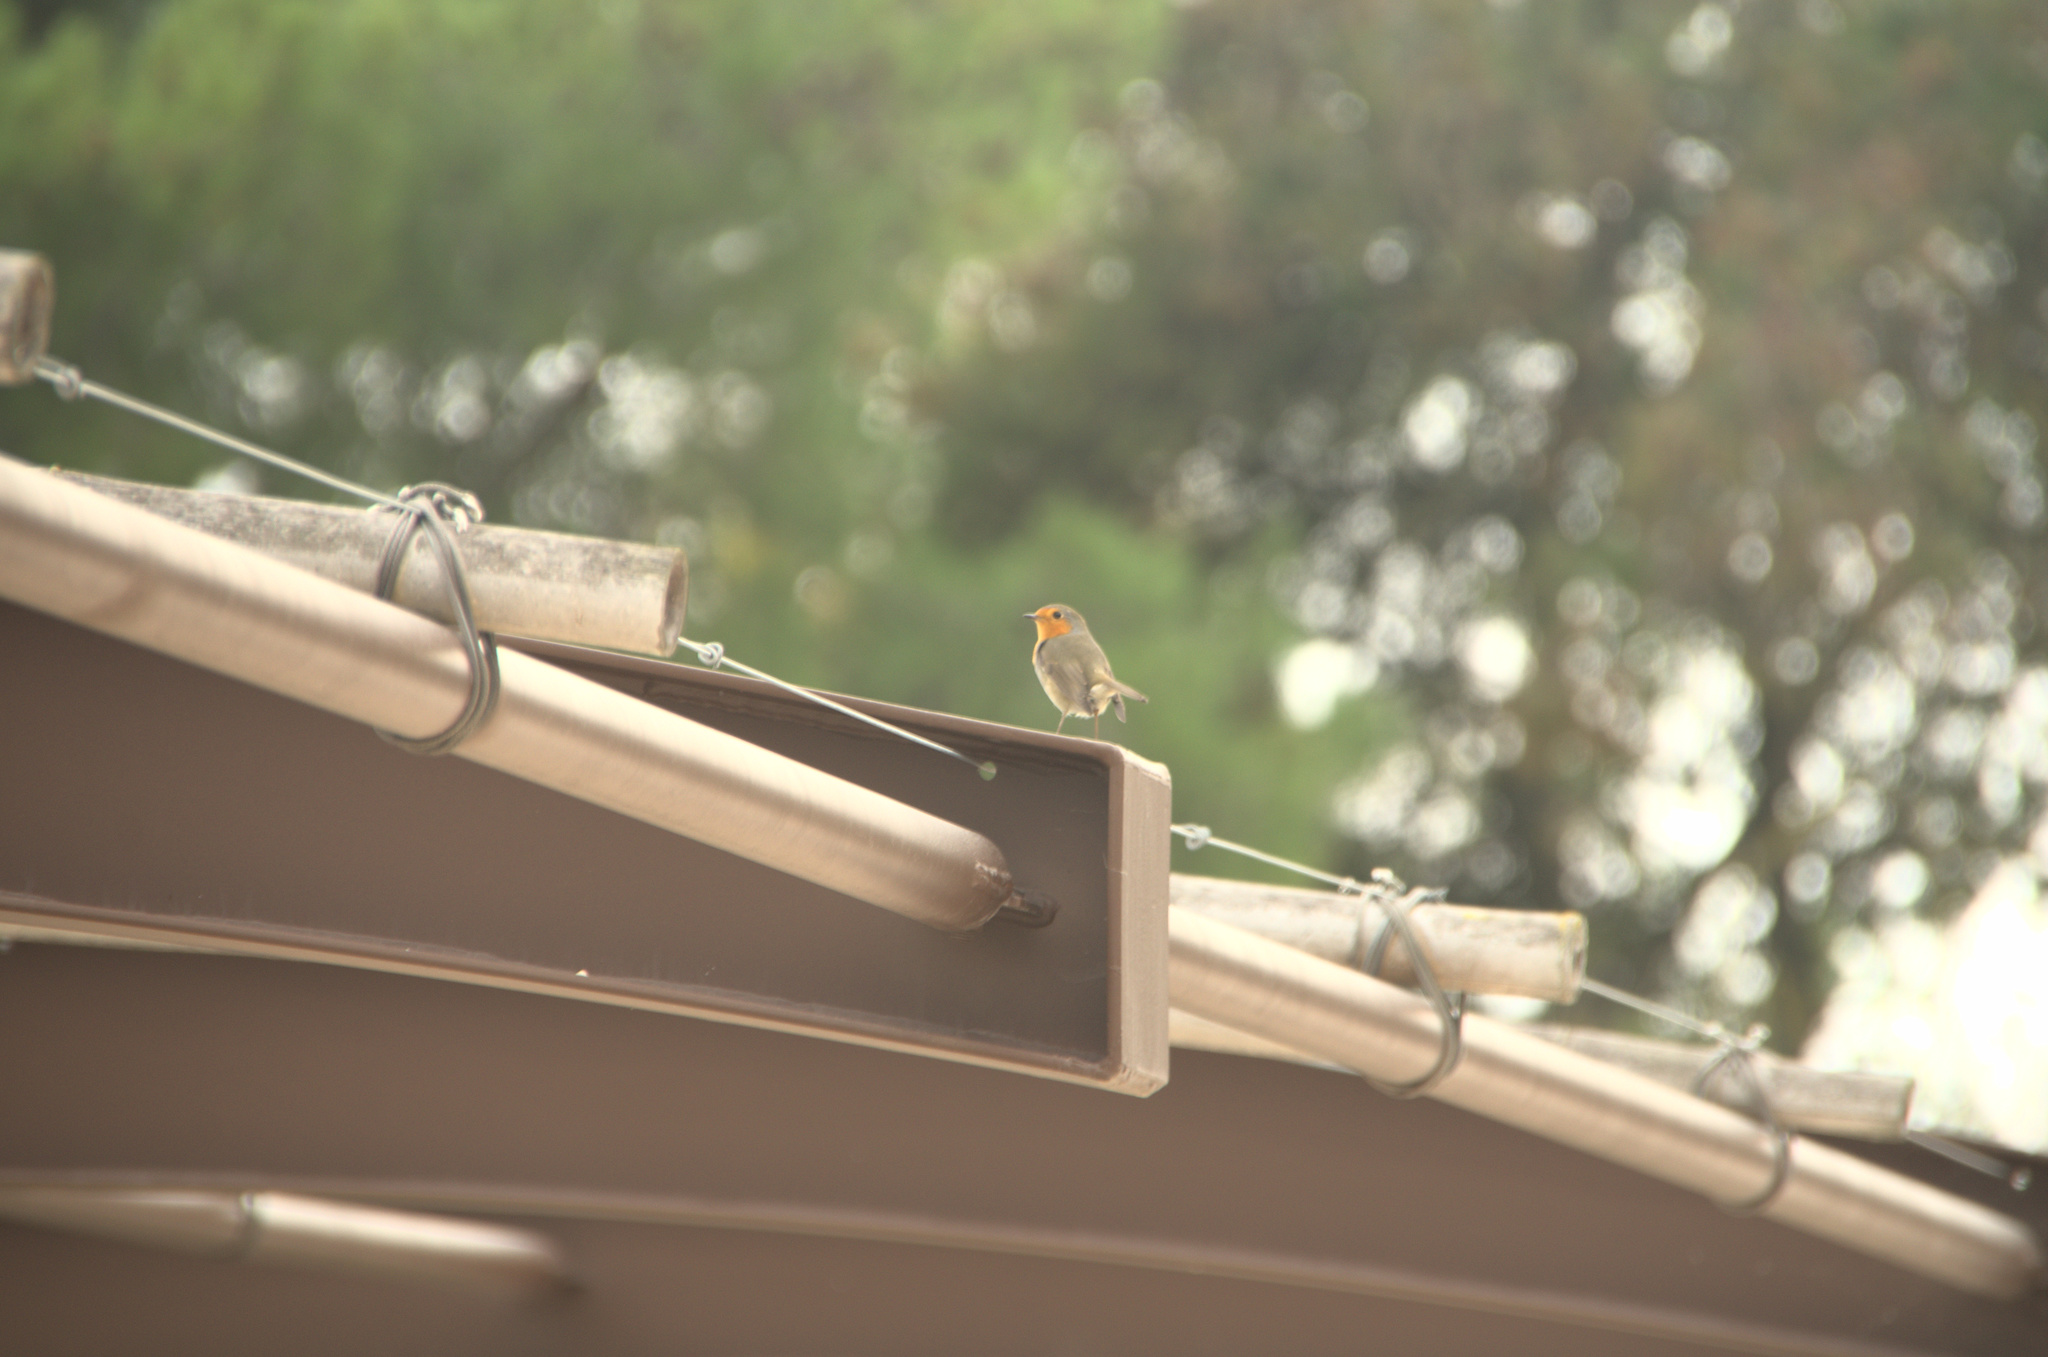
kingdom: Animalia
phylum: Chordata
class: Aves
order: Passeriformes
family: Muscicapidae
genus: Erithacus
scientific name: Erithacus rubecula
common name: European robin
